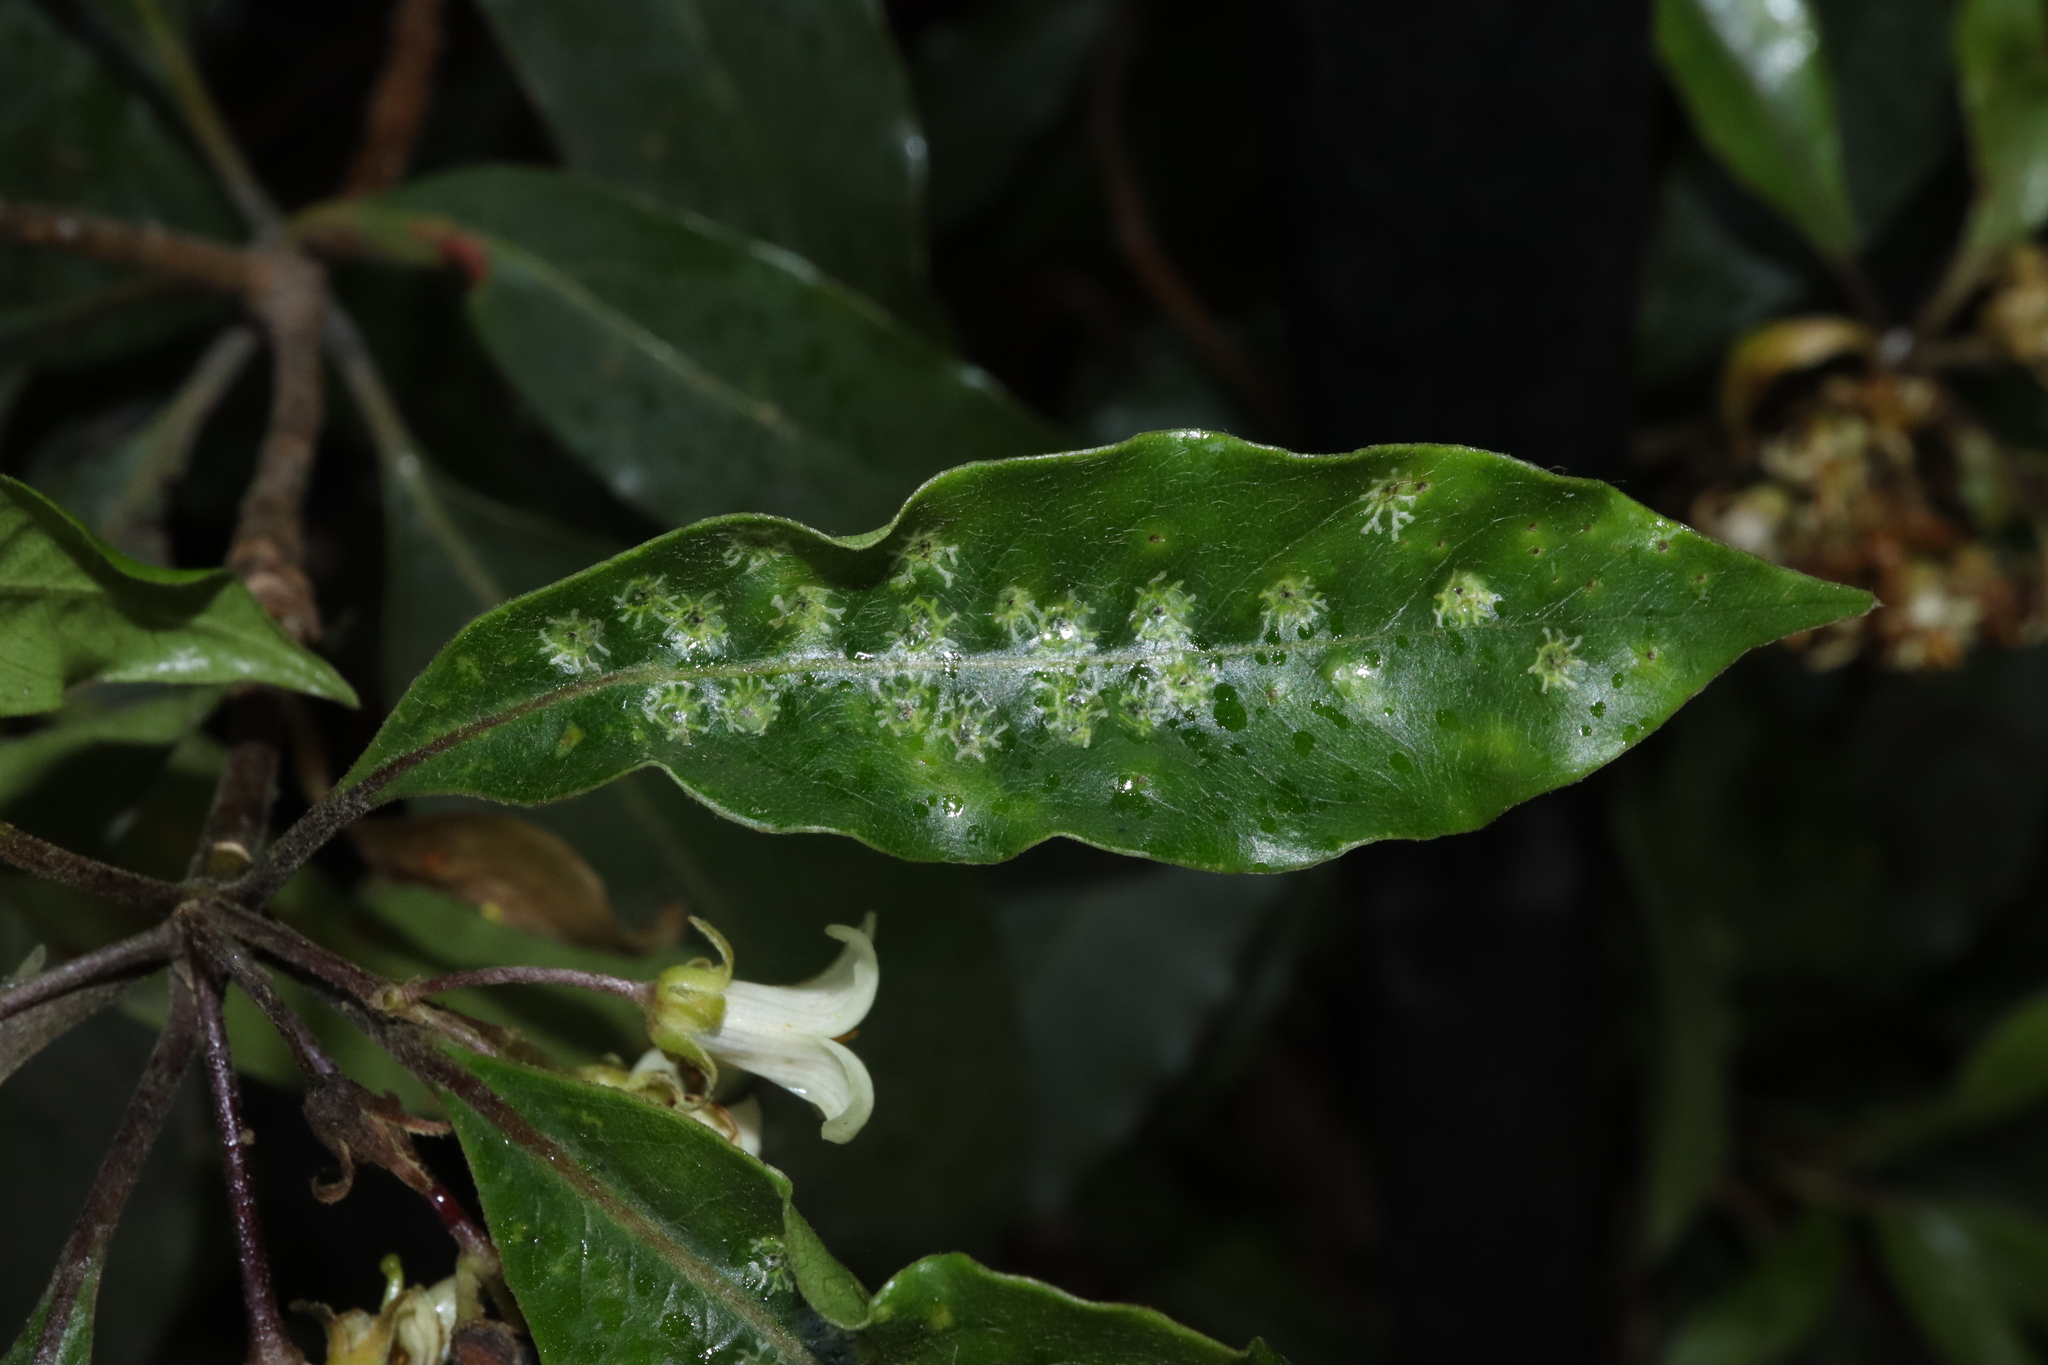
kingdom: Animalia
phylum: Arthropoda
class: Insecta
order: Diptera
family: Agromyzidae
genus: Phytoliriomyza
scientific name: Phytoliriomyza pittosporophylli
